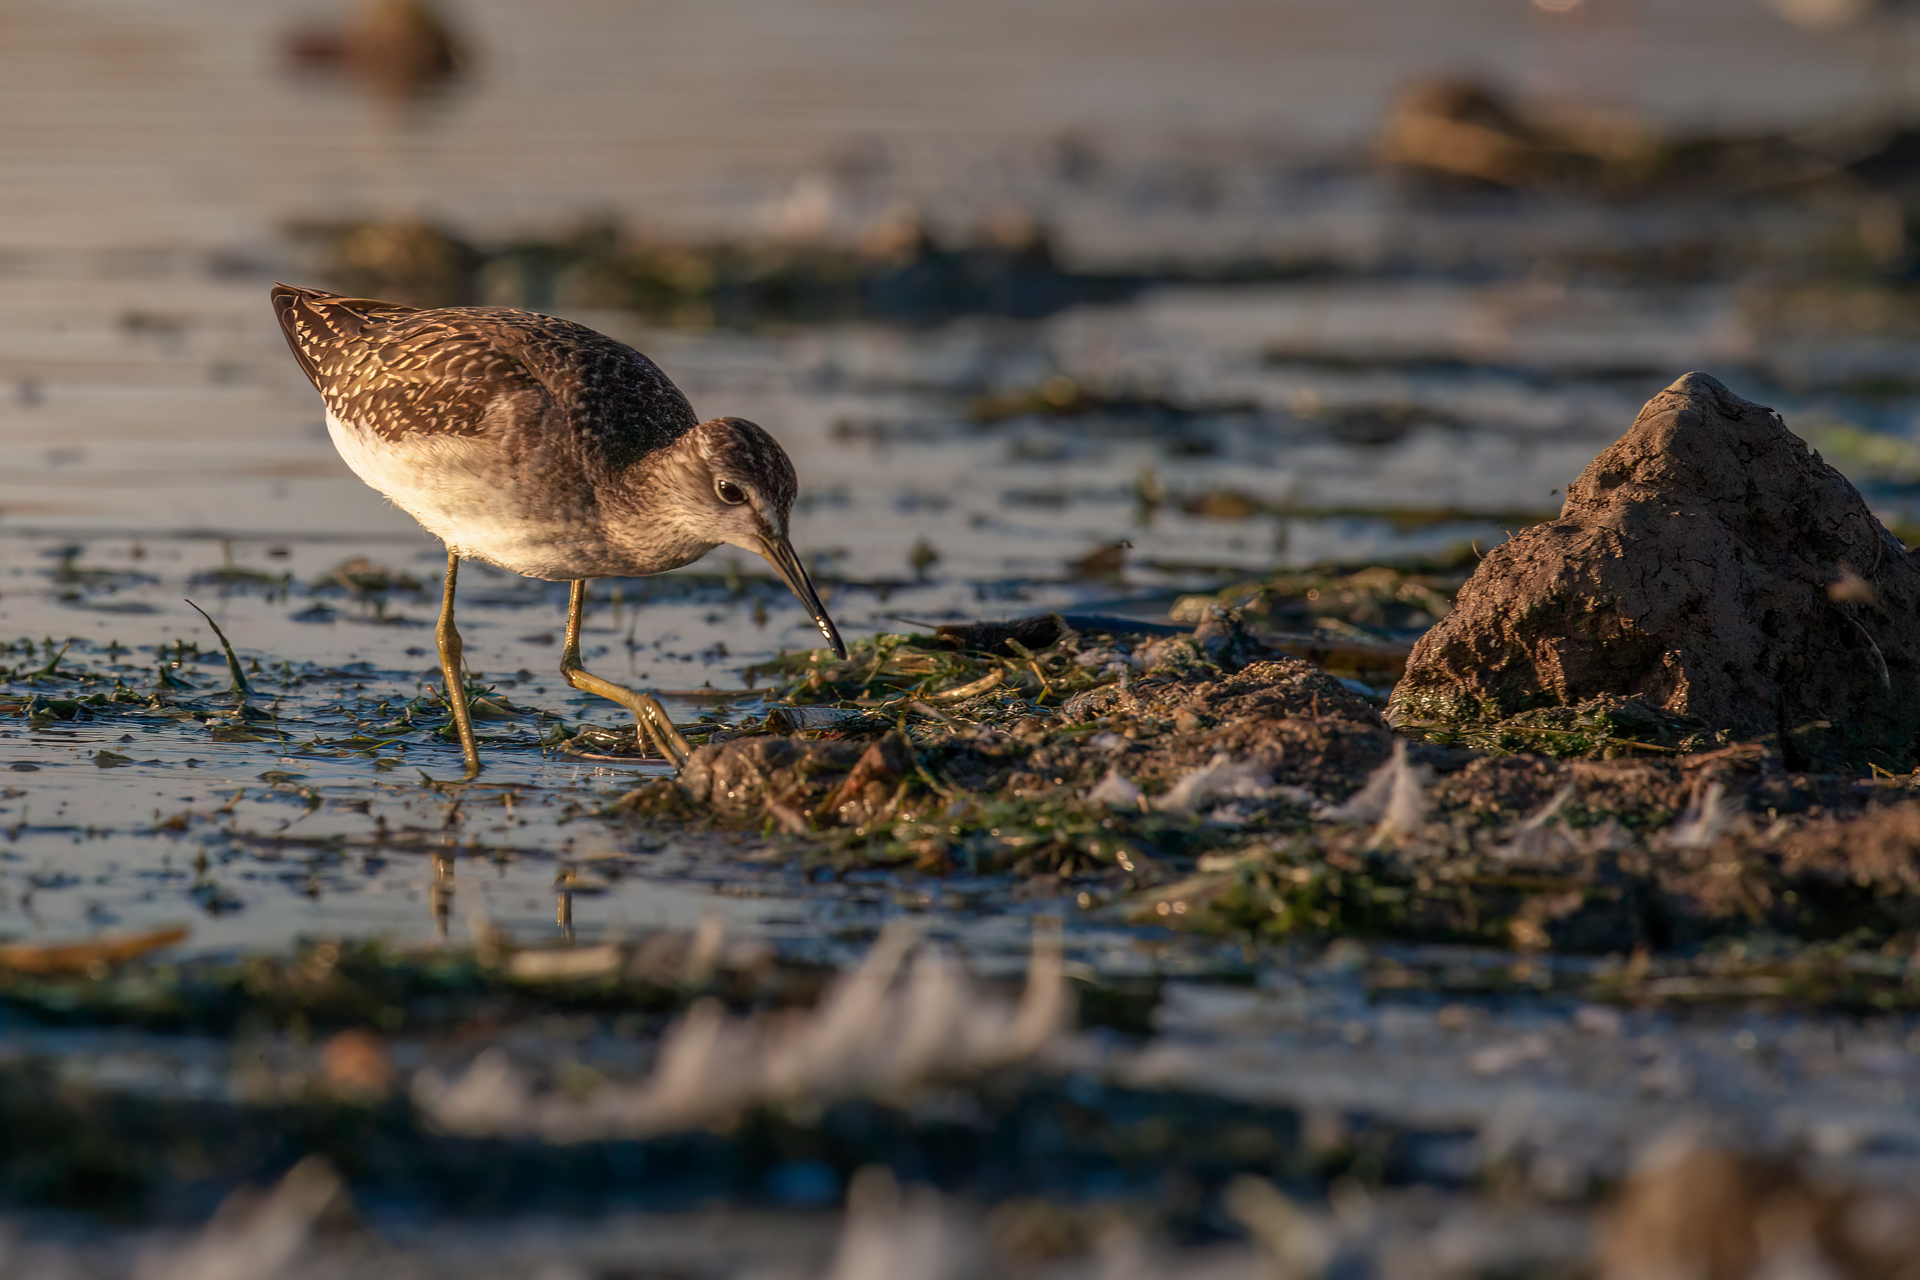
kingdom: Animalia
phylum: Chordata
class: Aves
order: Charadriiformes
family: Scolopacidae
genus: Tringa
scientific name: Tringa glareola
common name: Wood sandpiper
